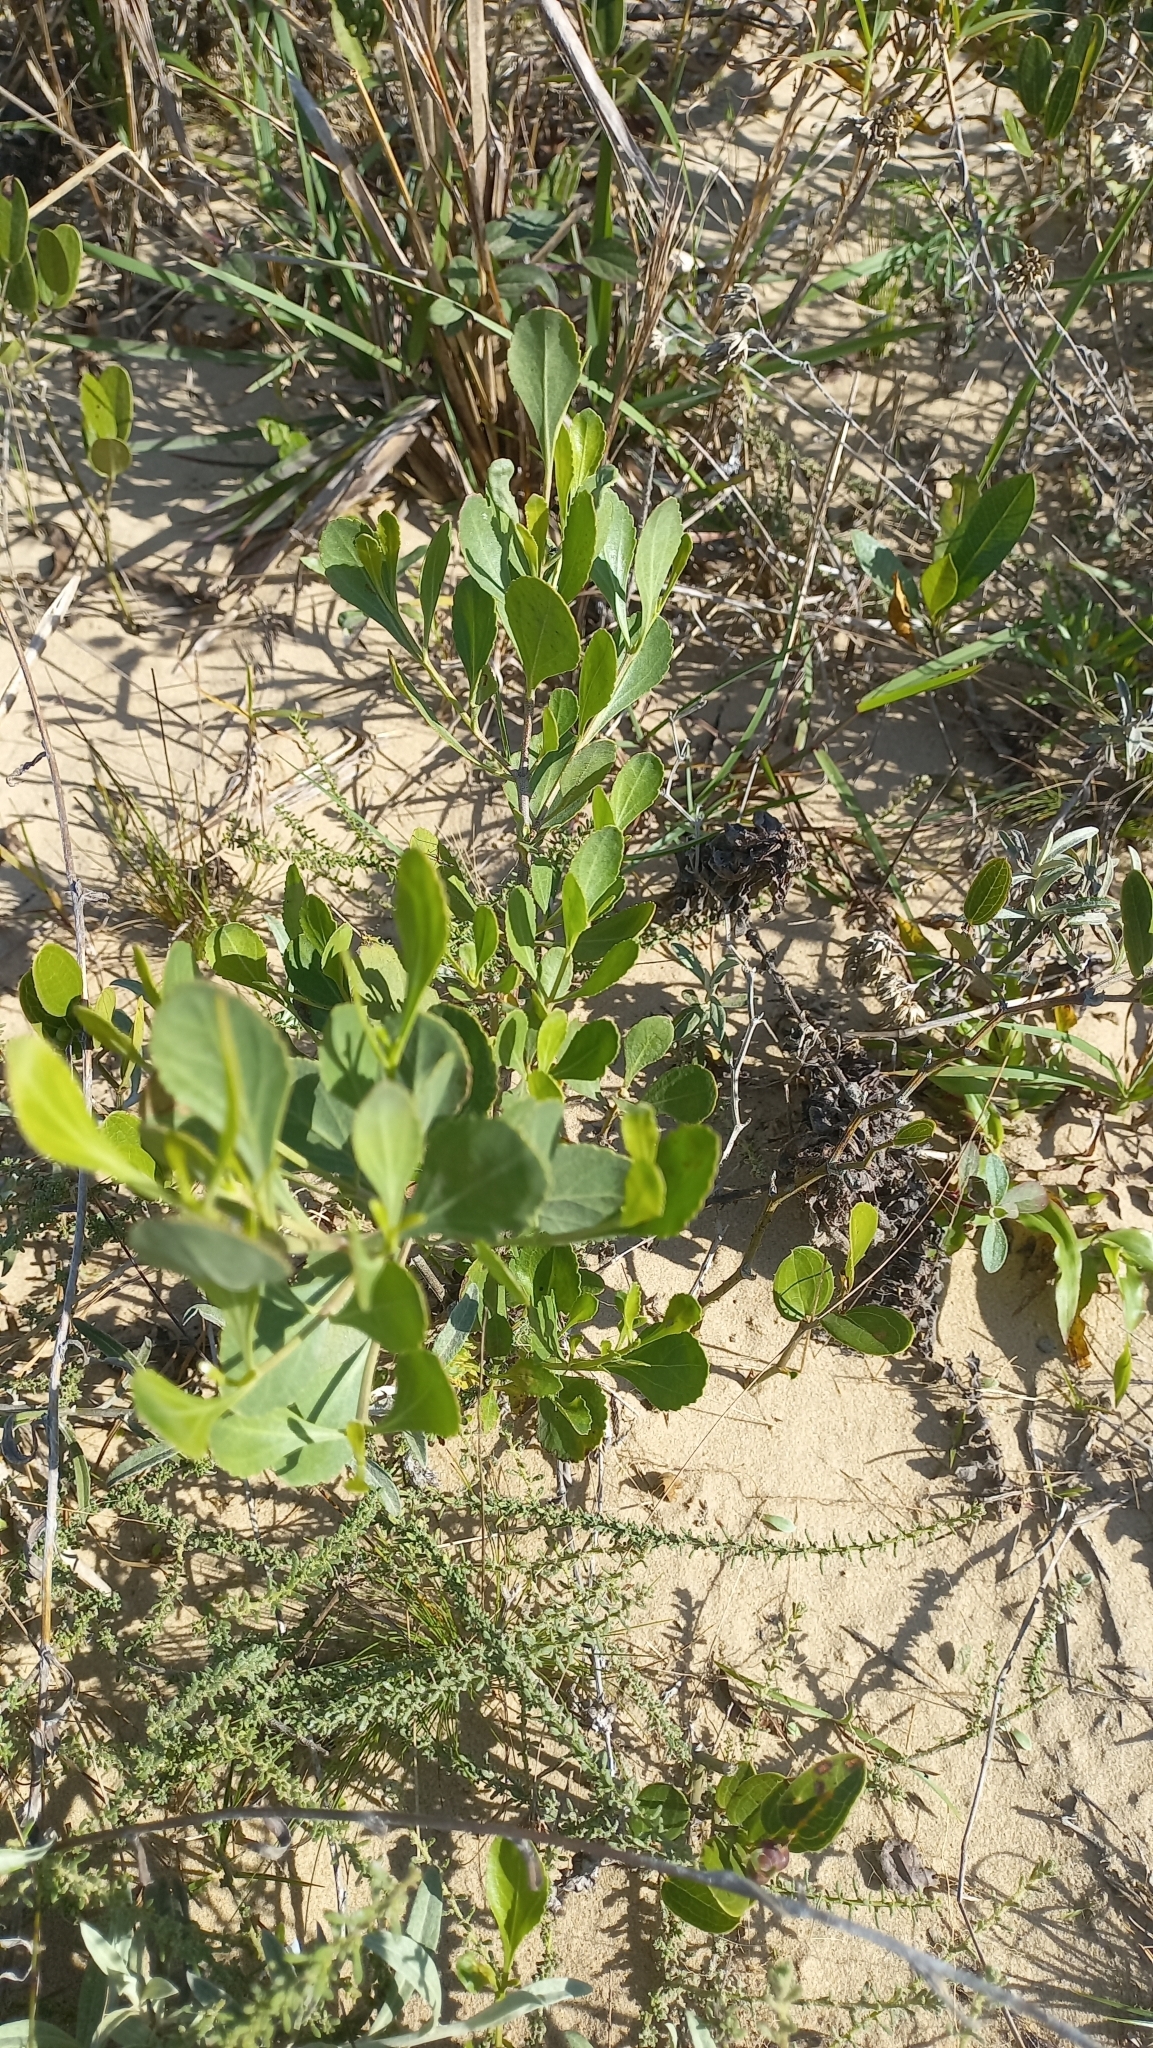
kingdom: Plantae
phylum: Tracheophyta
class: Magnoliopsida
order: Asterales
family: Asteraceae
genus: Symphyopappus
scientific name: Symphyopappus casarettoi
